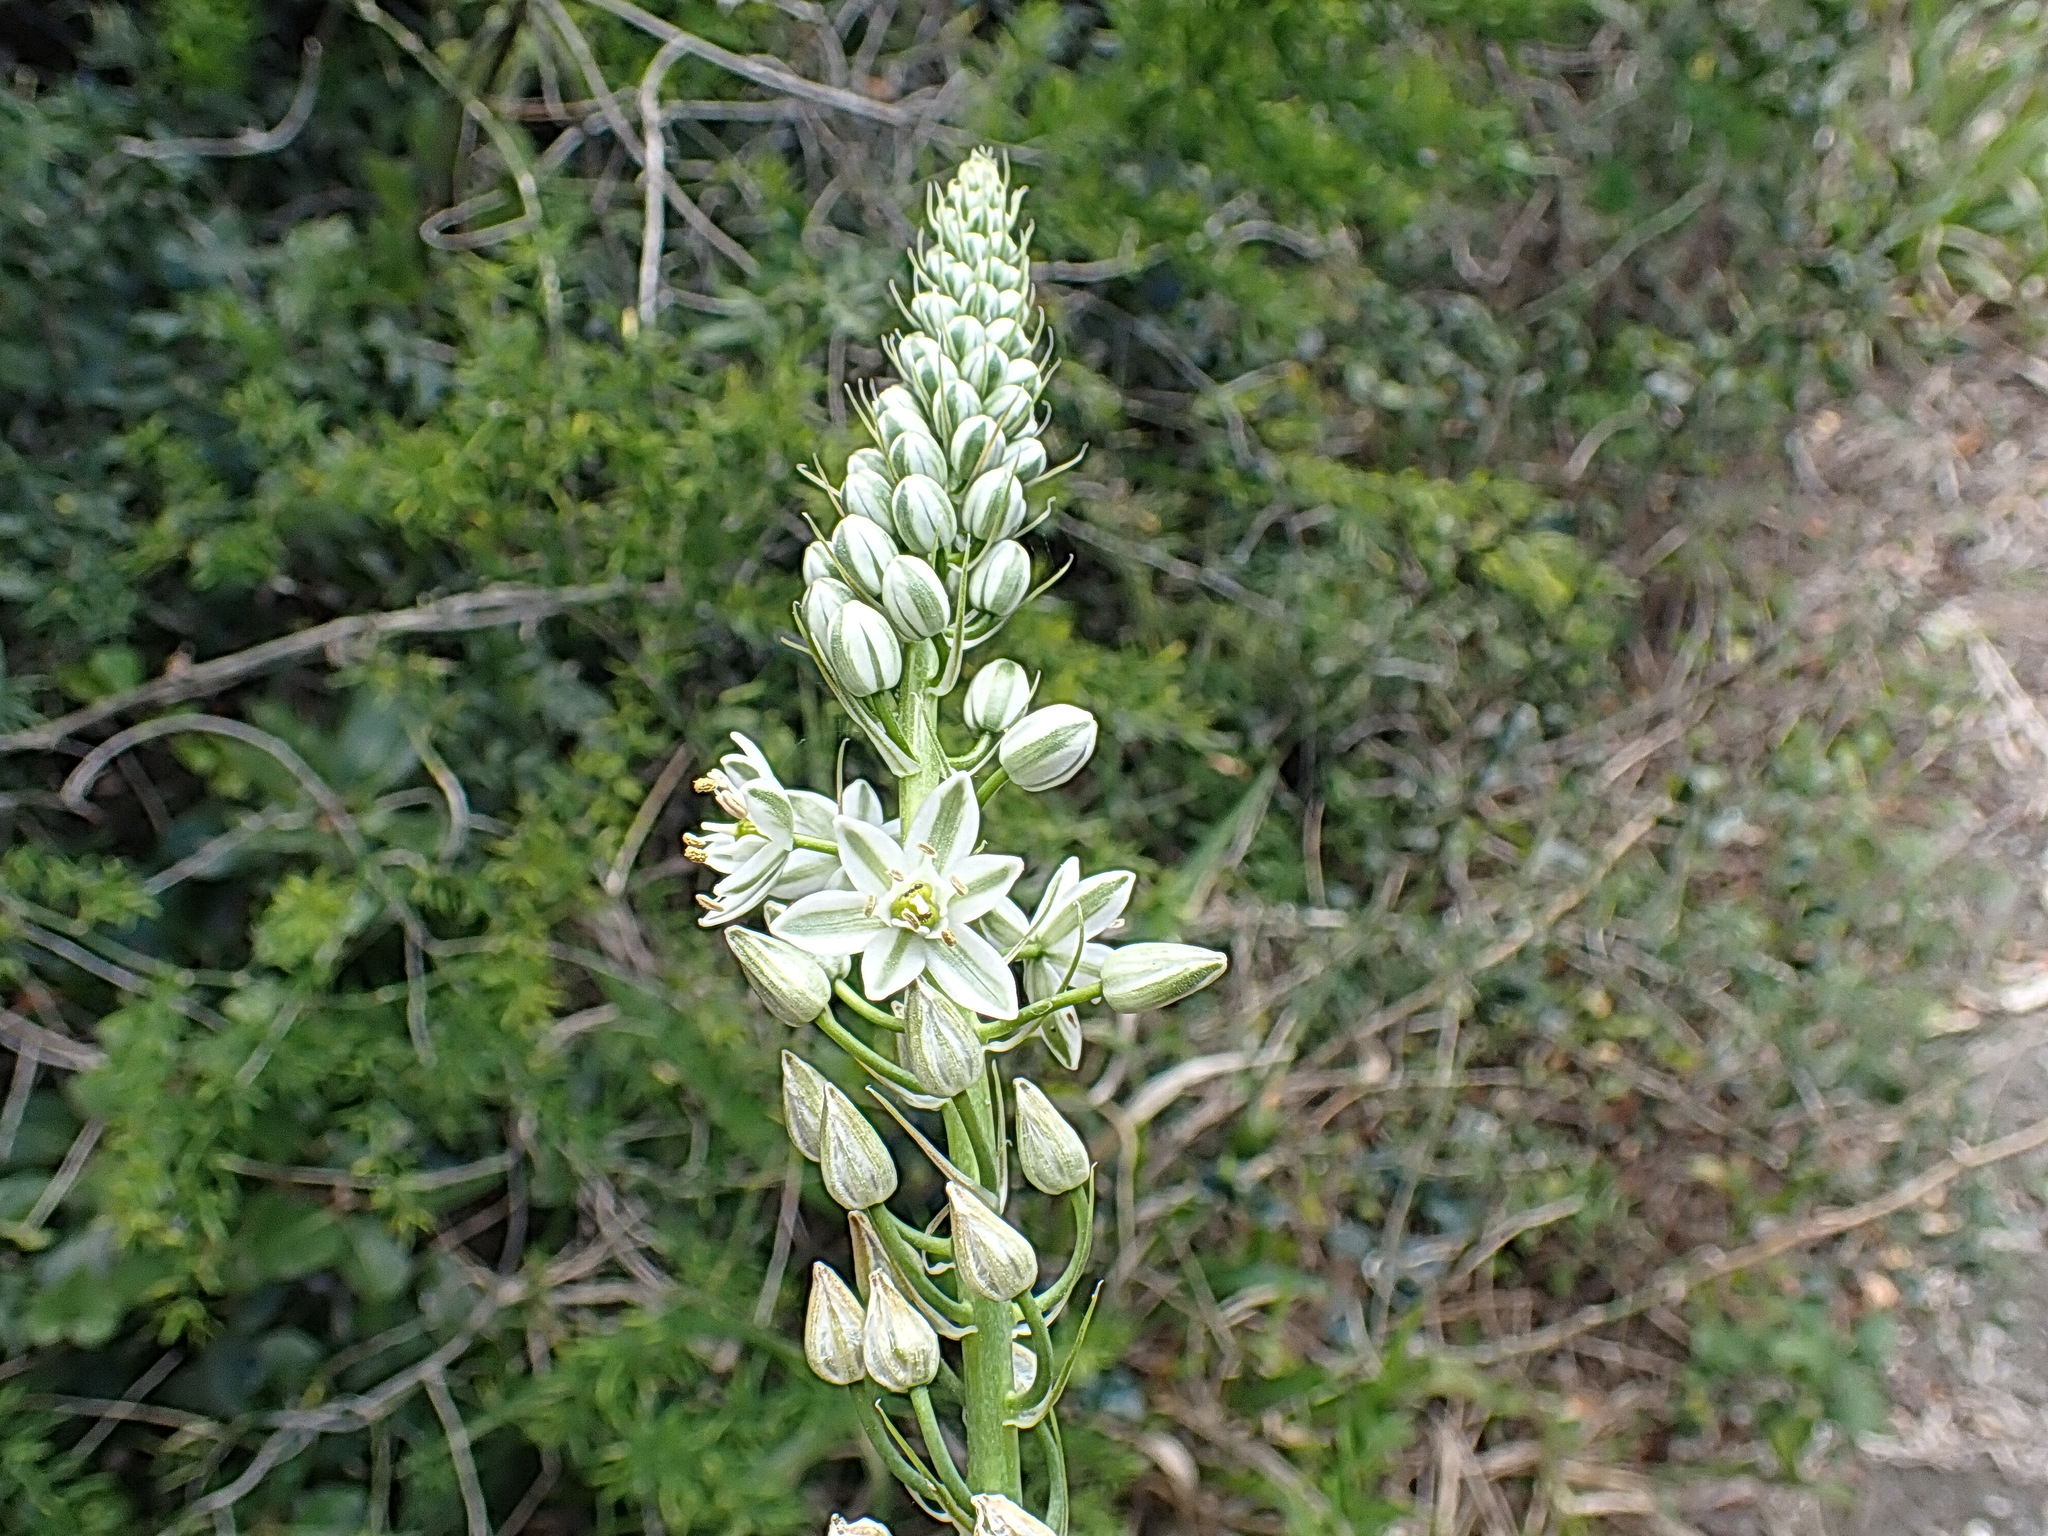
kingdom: Plantae
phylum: Tracheophyta
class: Liliopsida
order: Asparagales
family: Asparagaceae
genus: Albuca
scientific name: Albuca bracteata
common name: Sea-onion
